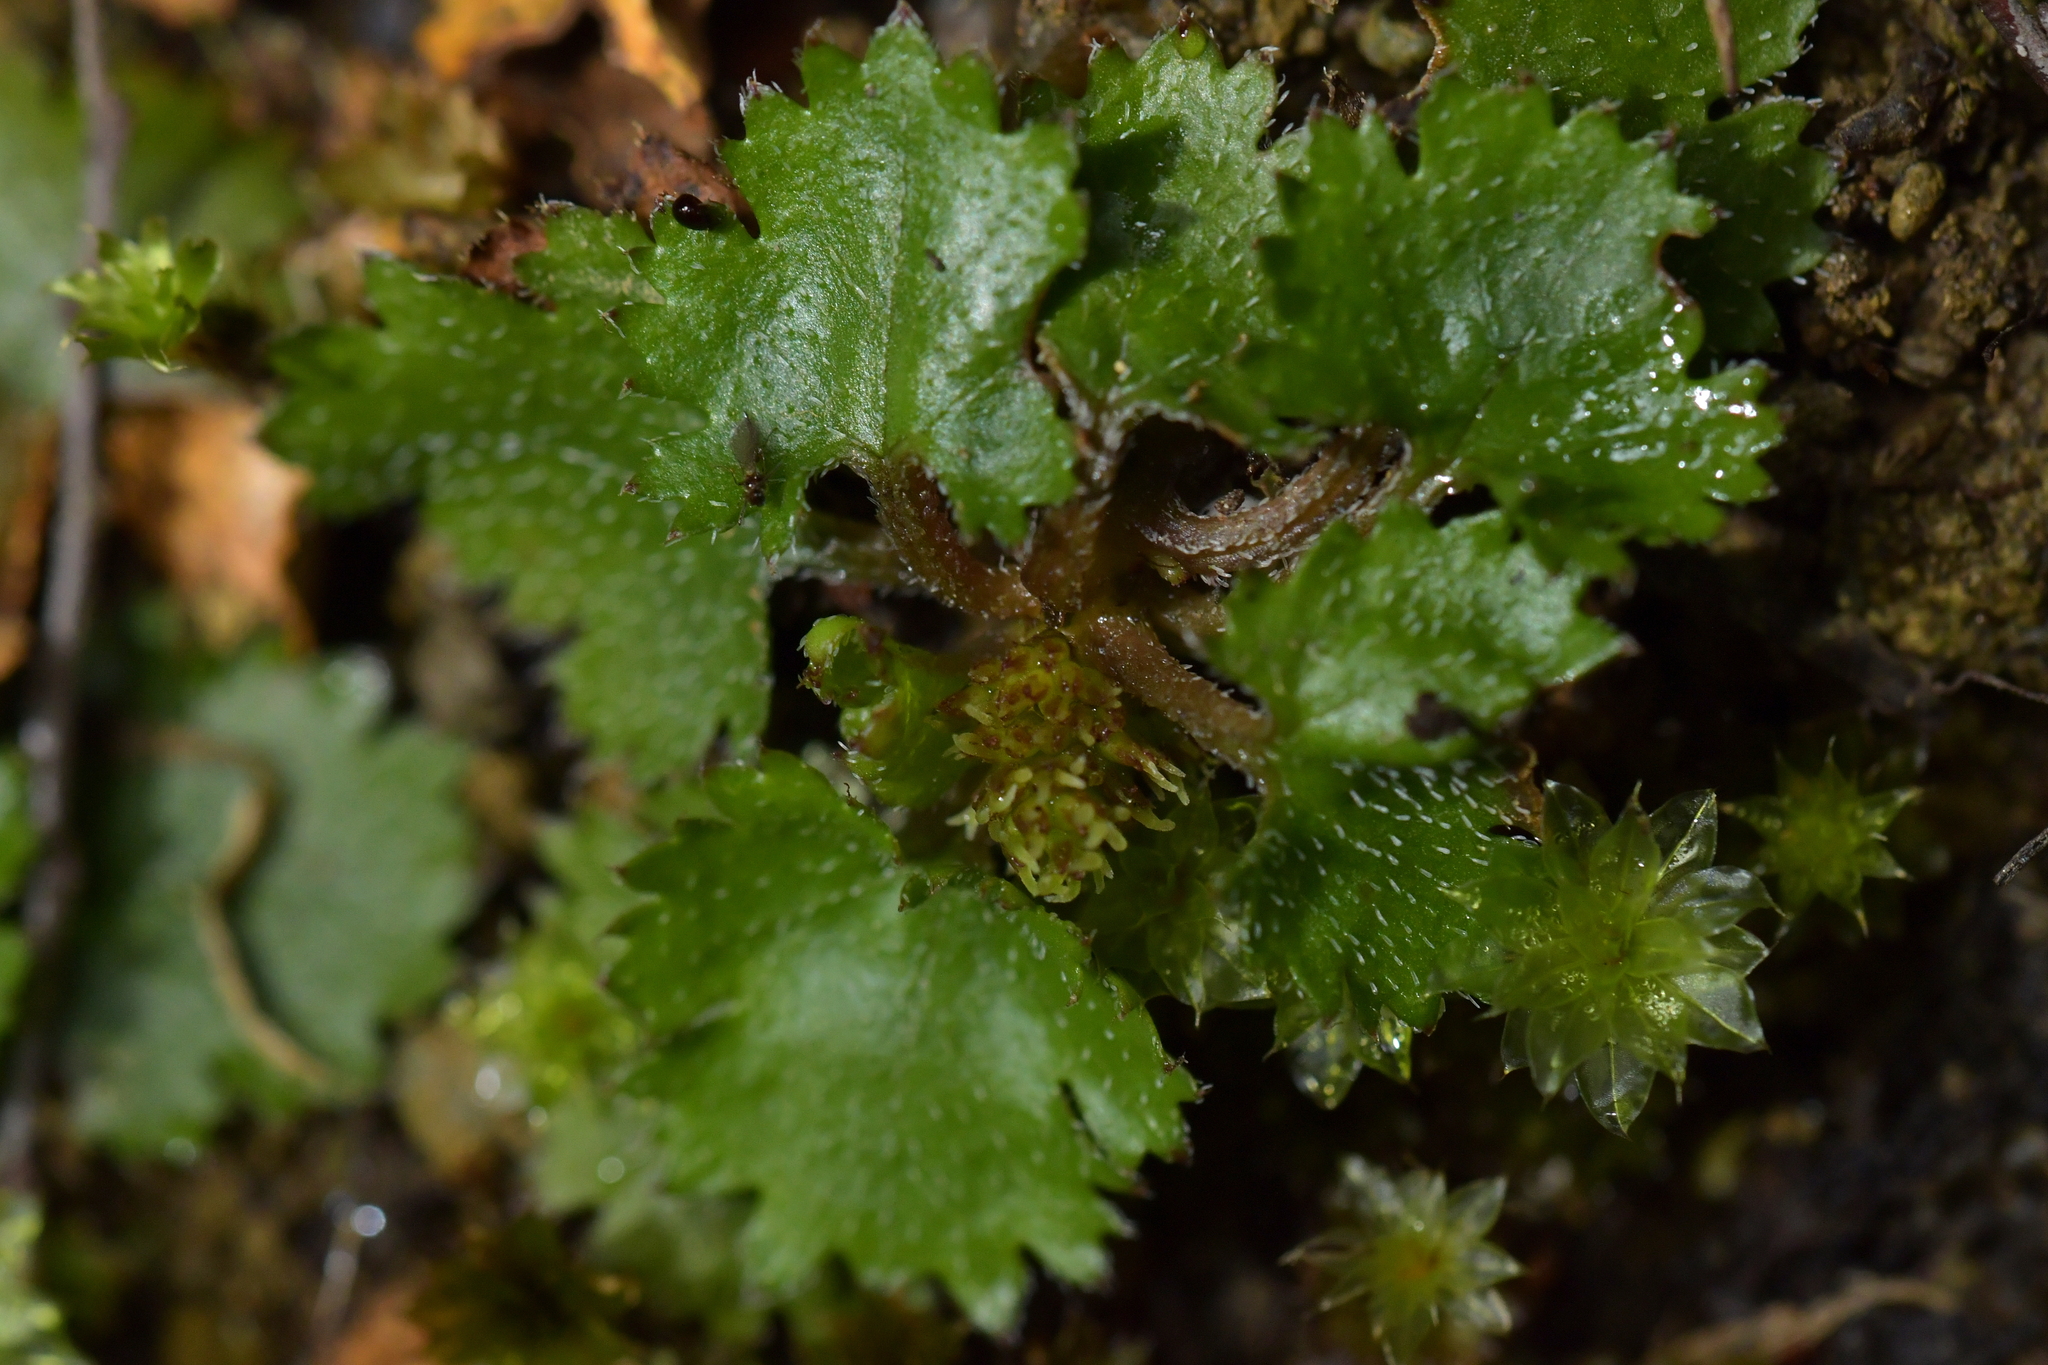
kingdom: Plantae
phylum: Tracheophyta
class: Magnoliopsida
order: Gunnerales
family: Gunneraceae
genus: Gunnera
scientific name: Gunnera monoica
